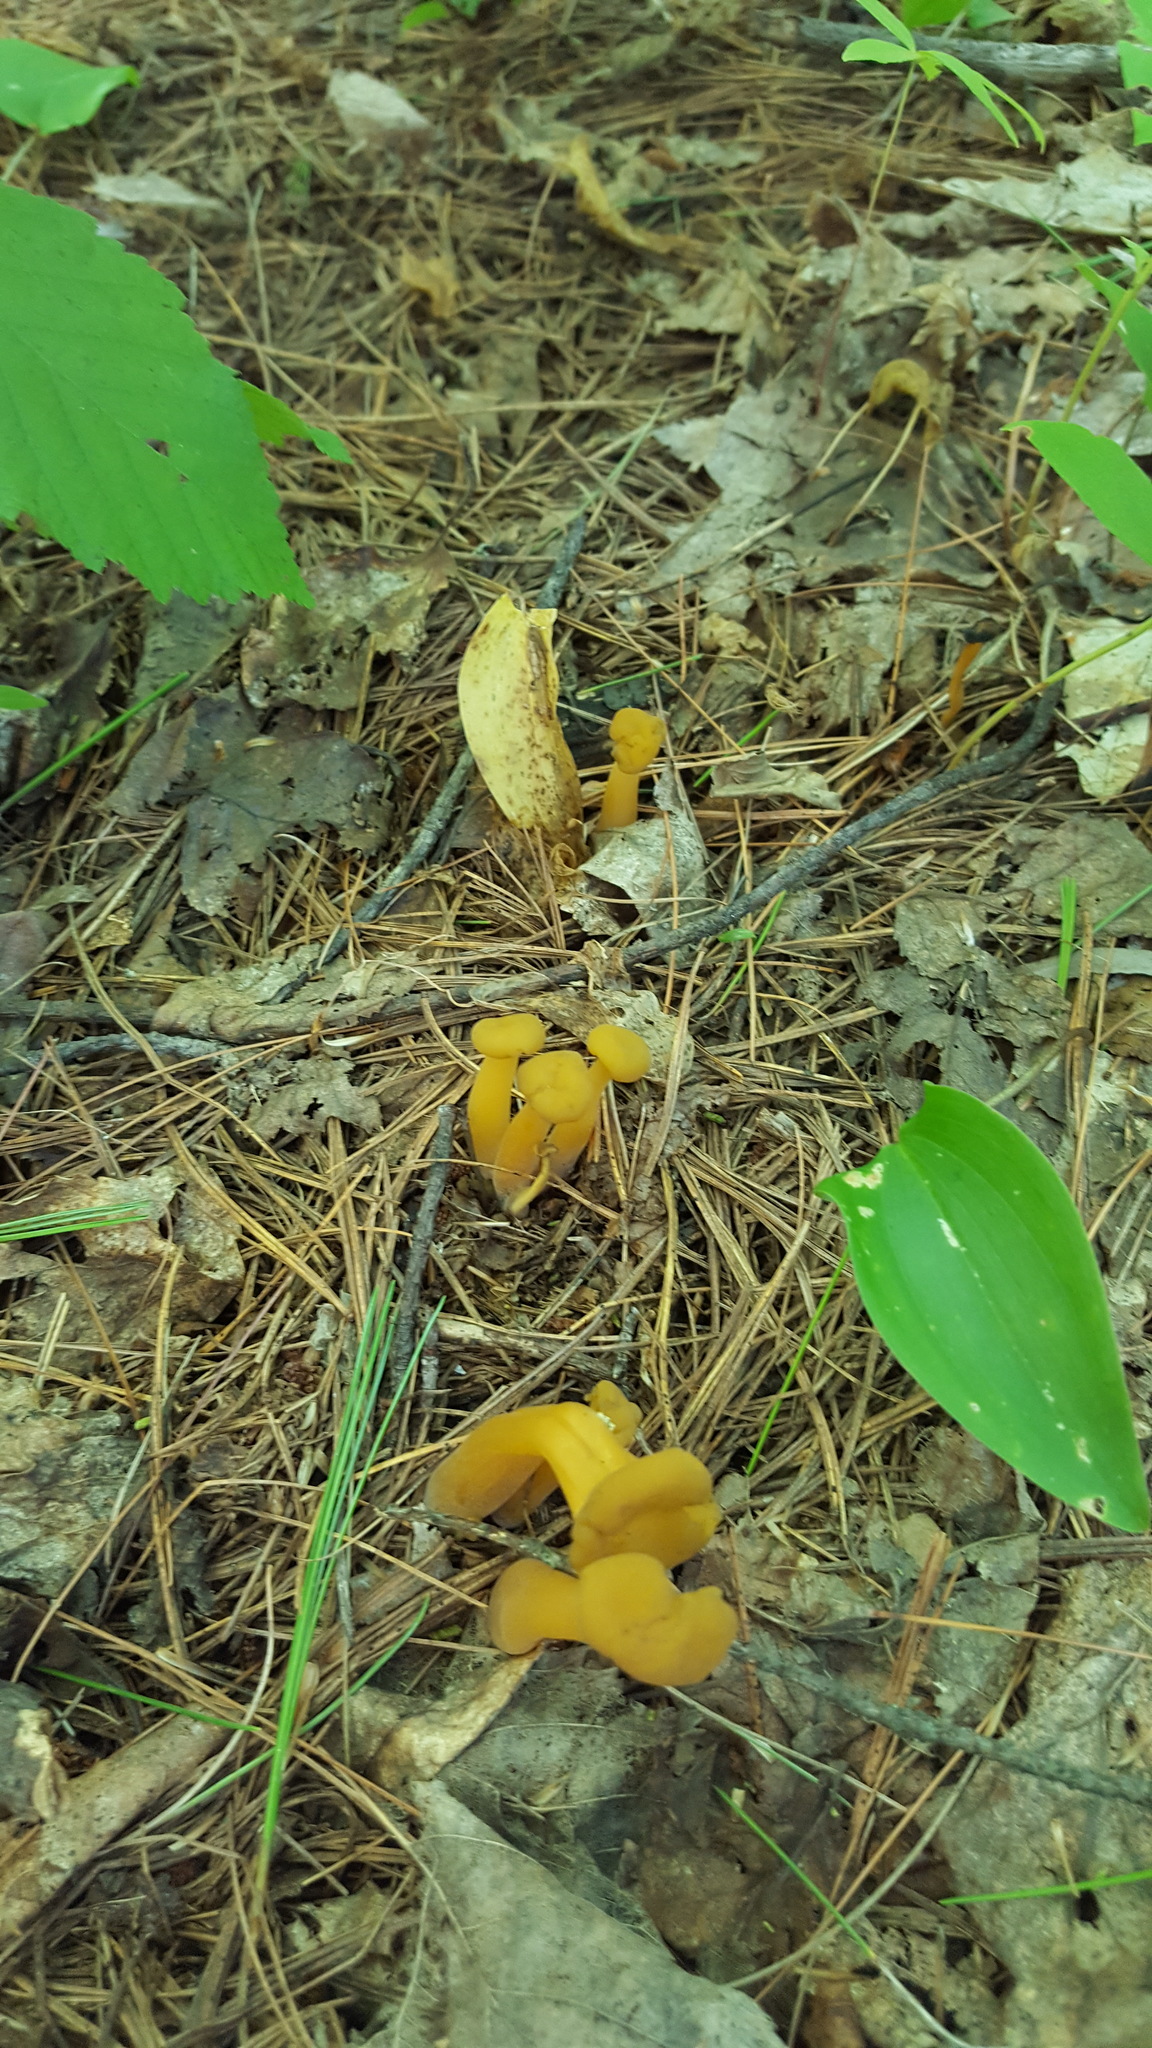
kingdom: Fungi
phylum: Ascomycota
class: Leotiomycetes
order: Leotiales
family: Leotiaceae
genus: Leotia
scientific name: Leotia lubrica
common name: Jellybaby
